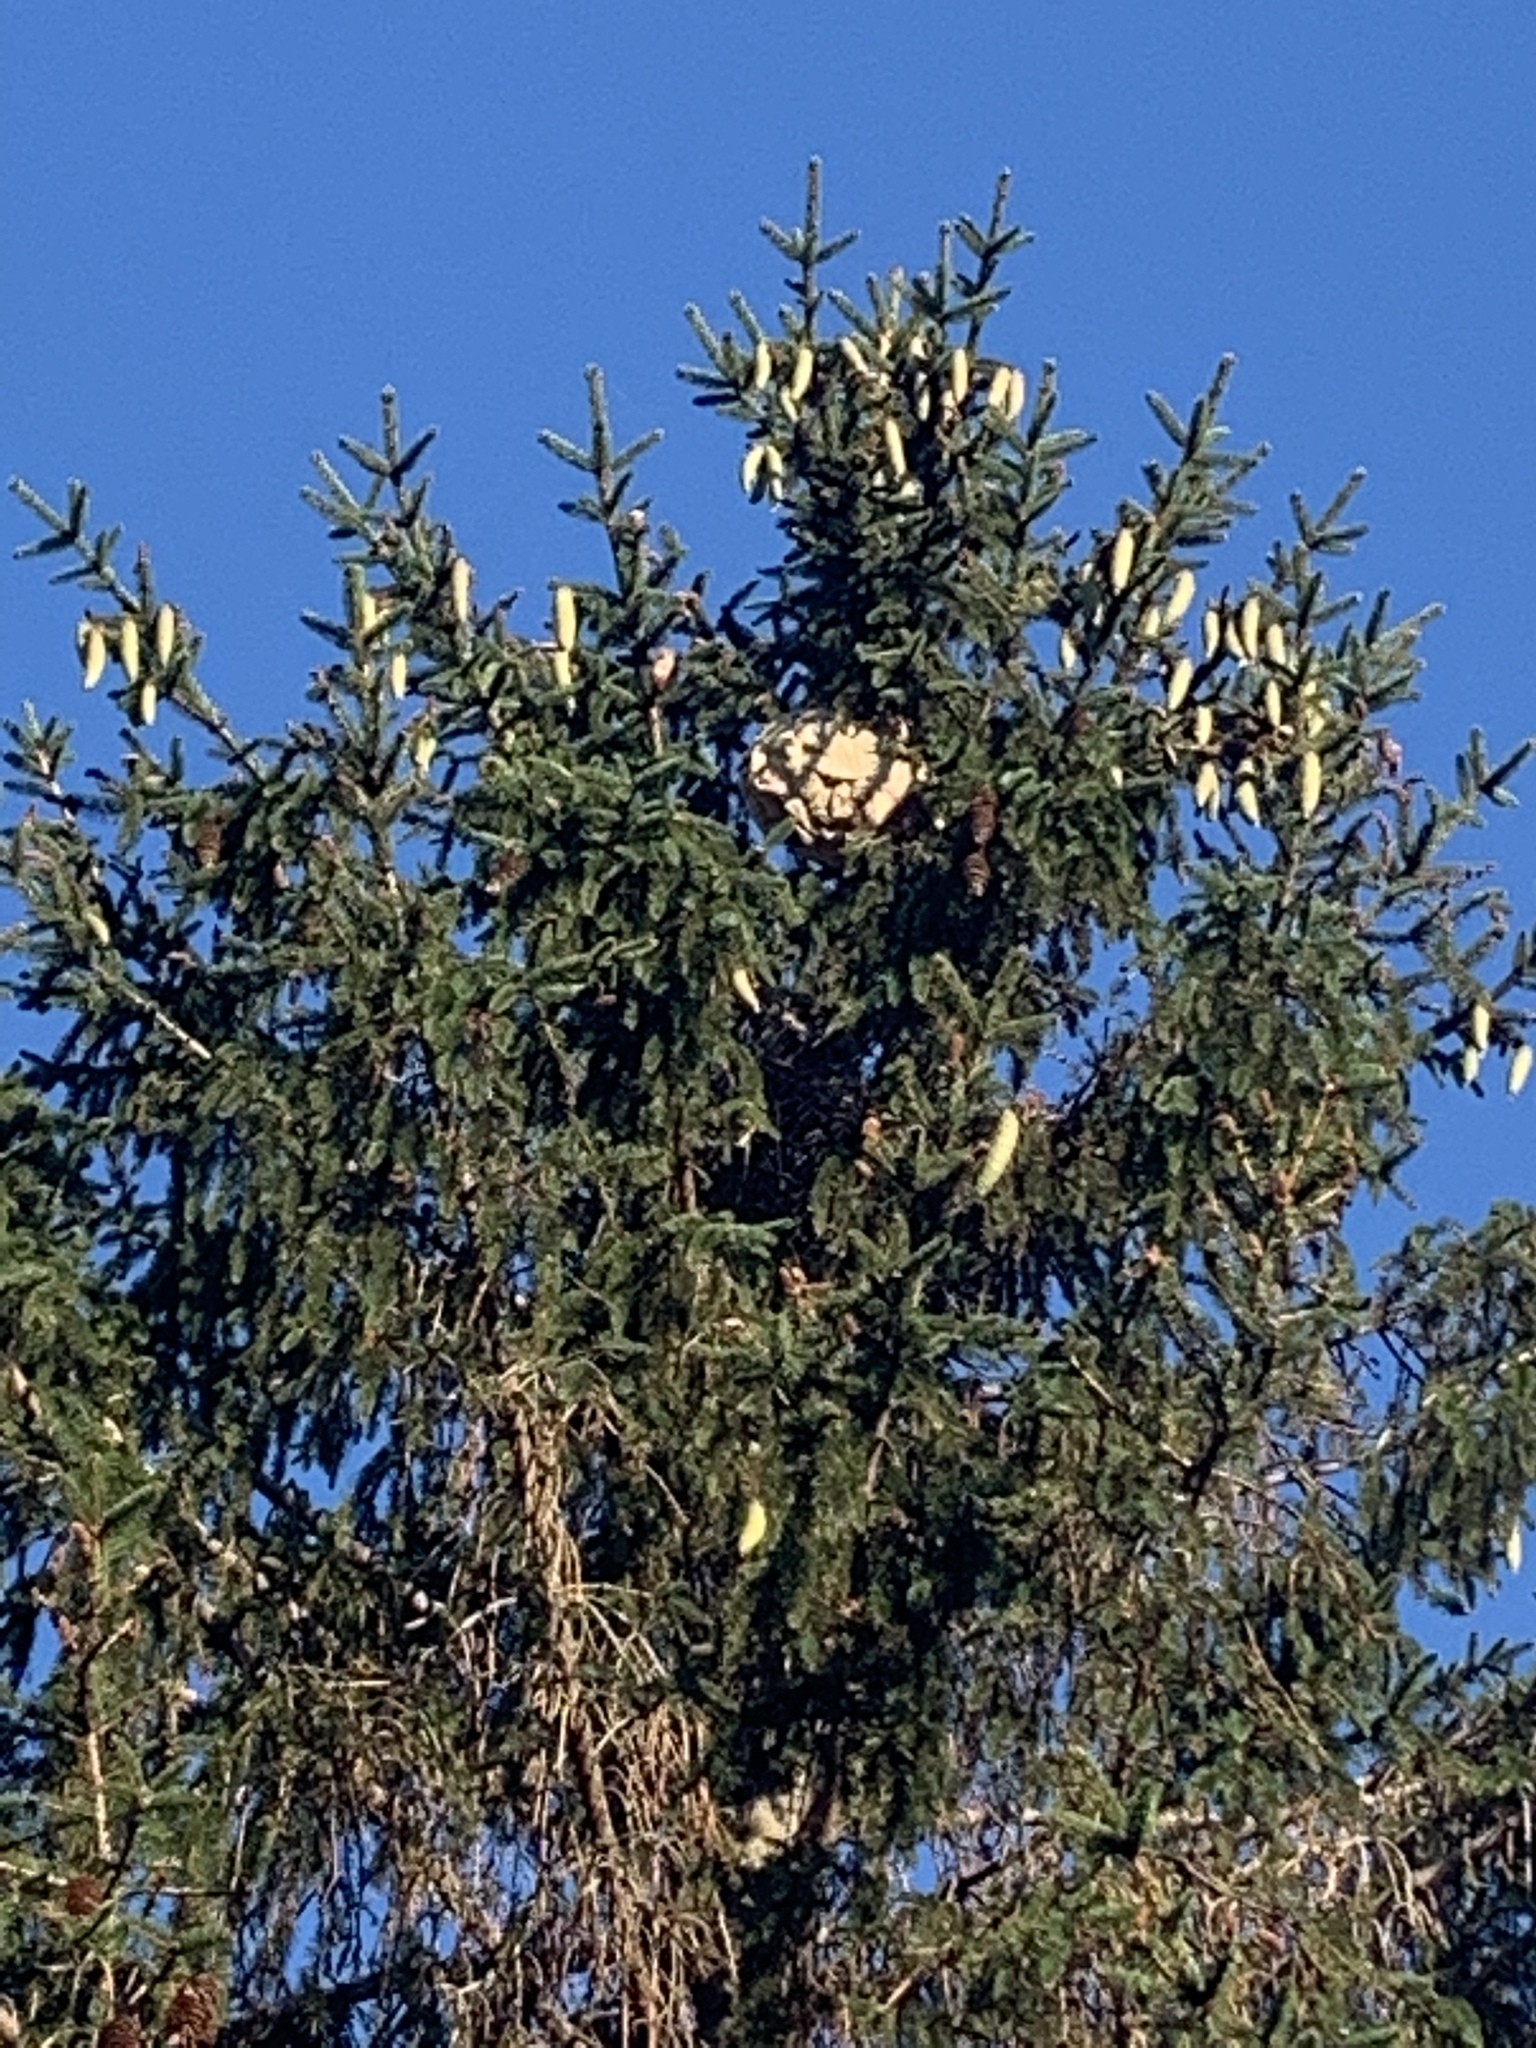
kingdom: Animalia
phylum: Arthropoda
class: Insecta
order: Hymenoptera
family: Vespidae
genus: Vespa
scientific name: Vespa velutina
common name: Asian hornet
